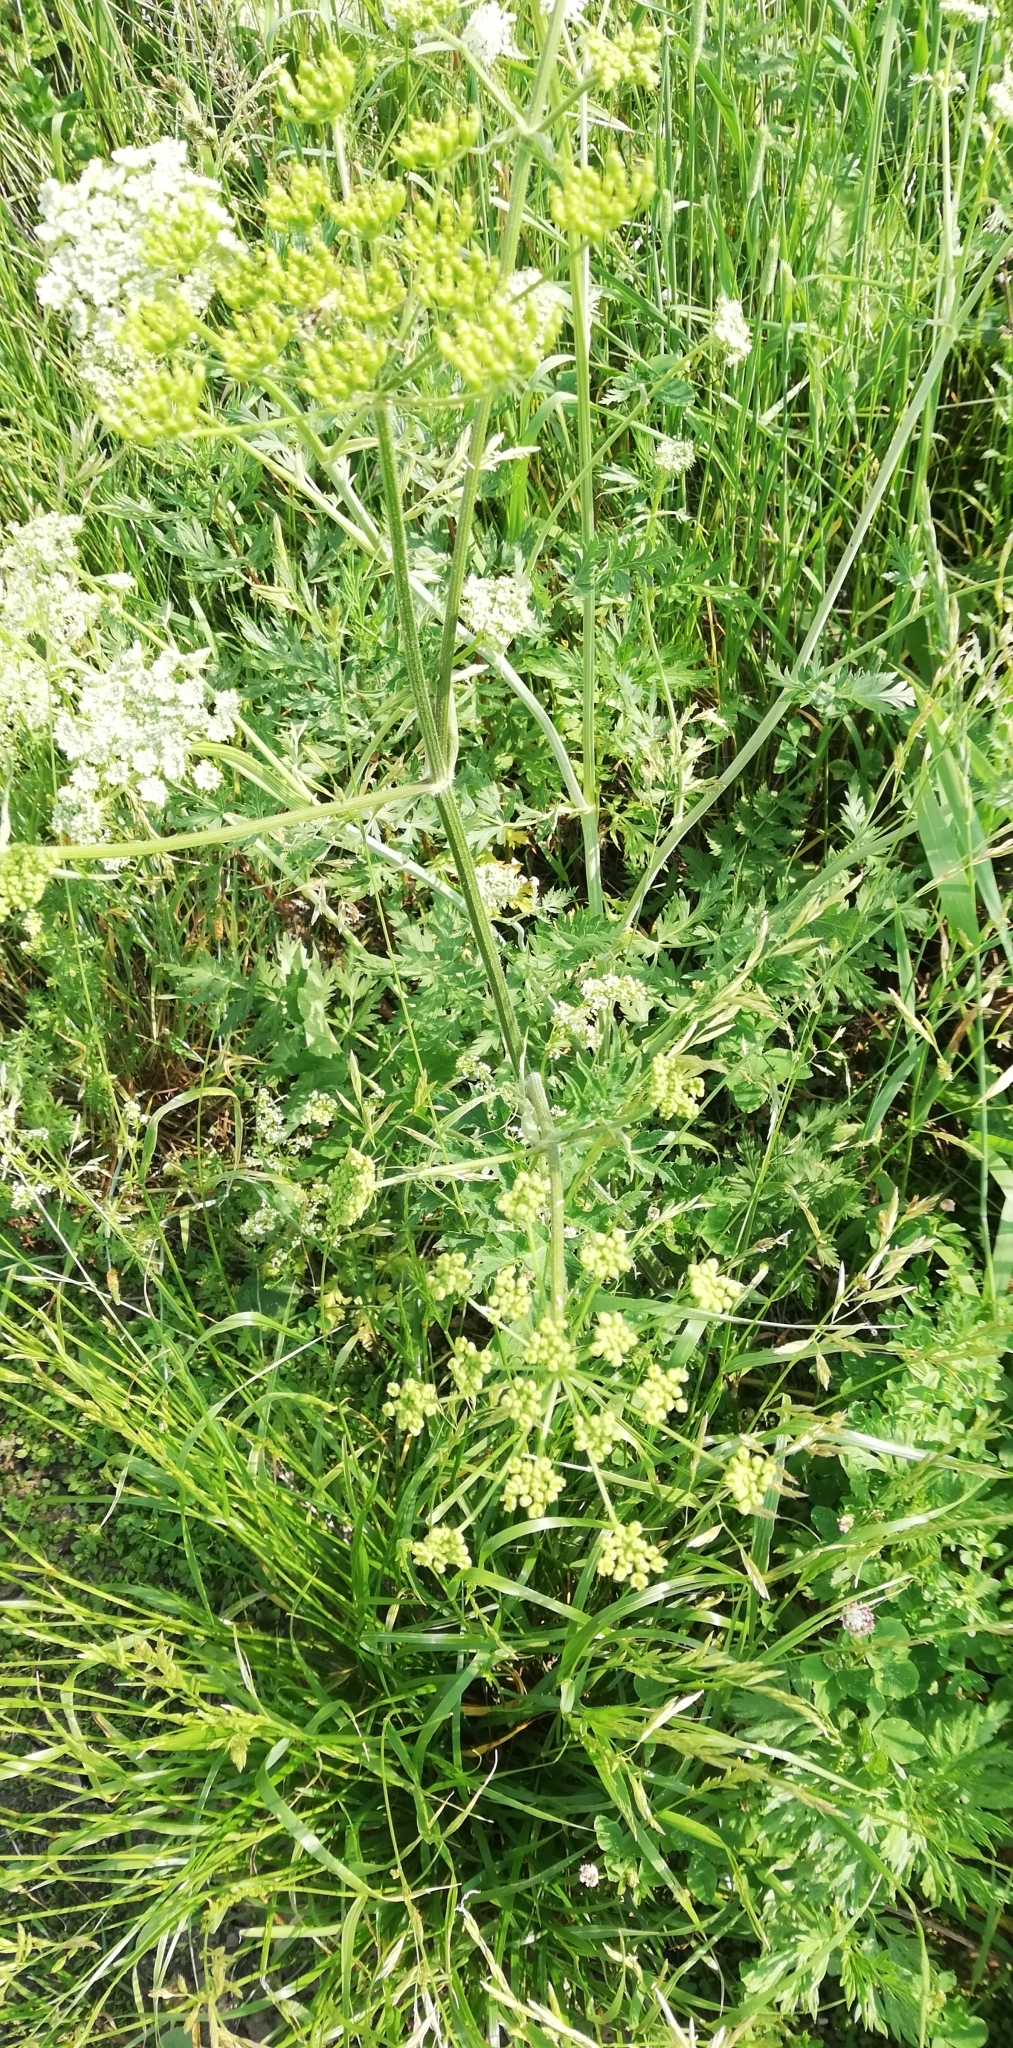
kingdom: Plantae
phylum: Tracheophyta
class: Magnoliopsida
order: Apiales
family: Apiaceae
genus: Seseli
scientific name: Seseli libanotis
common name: Mooncarrot
